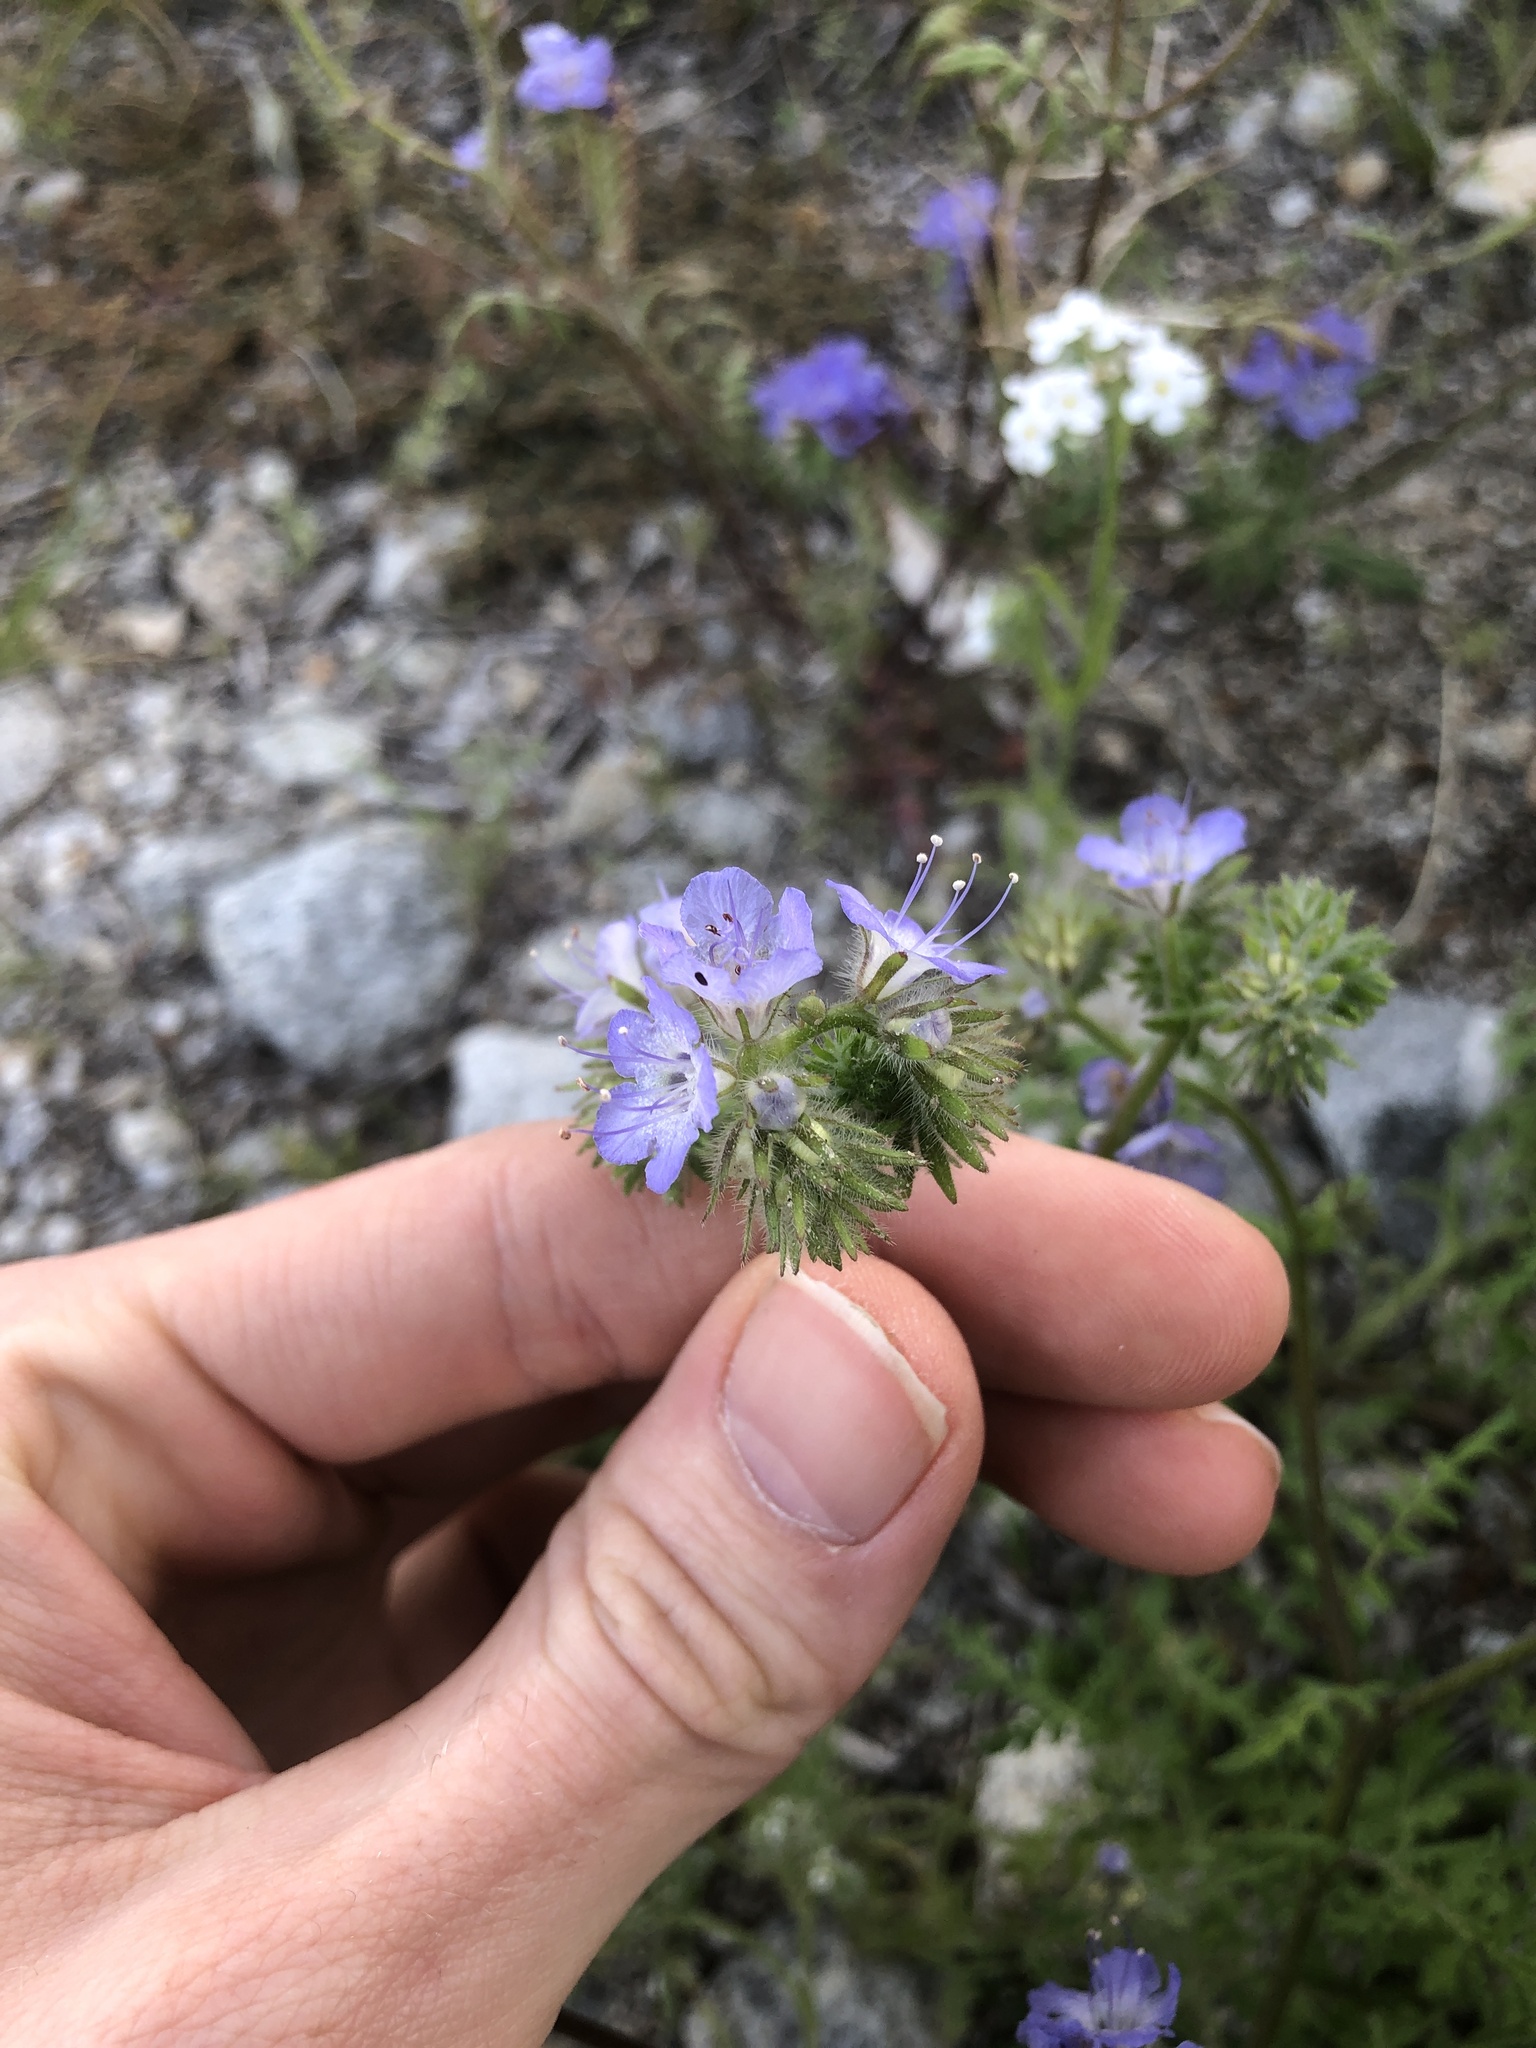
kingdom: Plantae
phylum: Tracheophyta
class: Magnoliopsida
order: Boraginales
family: Hydrophyllaceae
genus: Phacelia
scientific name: Phacelia distans
